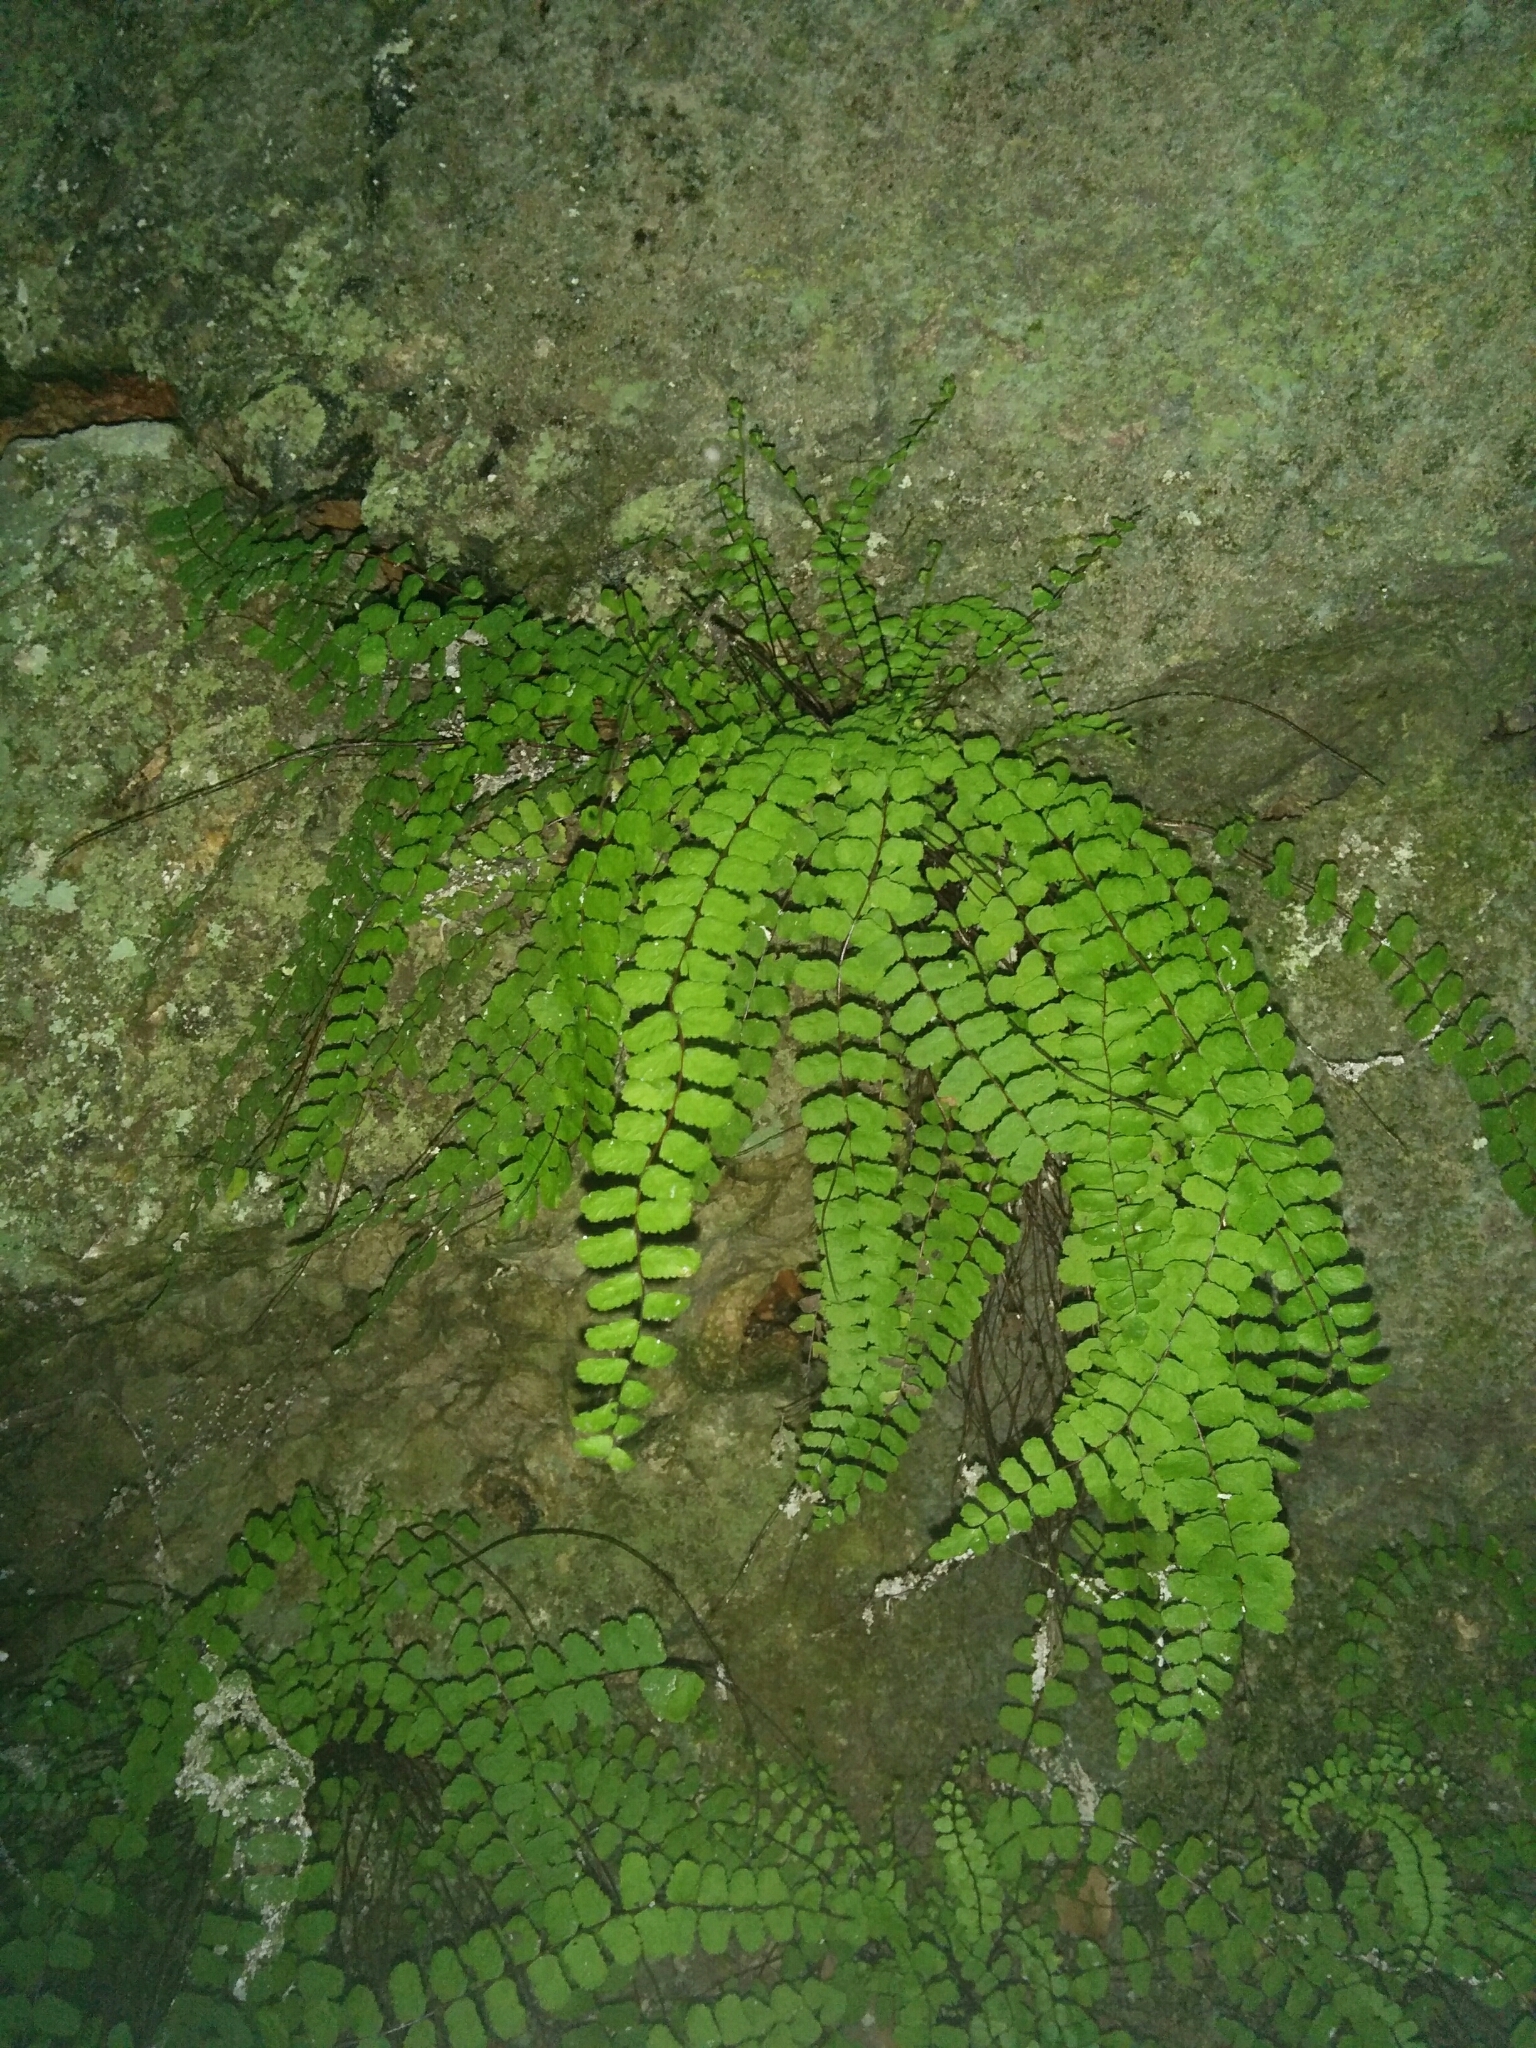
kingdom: Plantae
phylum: Tracheophyta
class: Polypodiopsida
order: Polypodiales
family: Aspleniaceae
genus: Asplenium
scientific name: Asplenium trichomanes
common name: Maidenhair spleenwort
